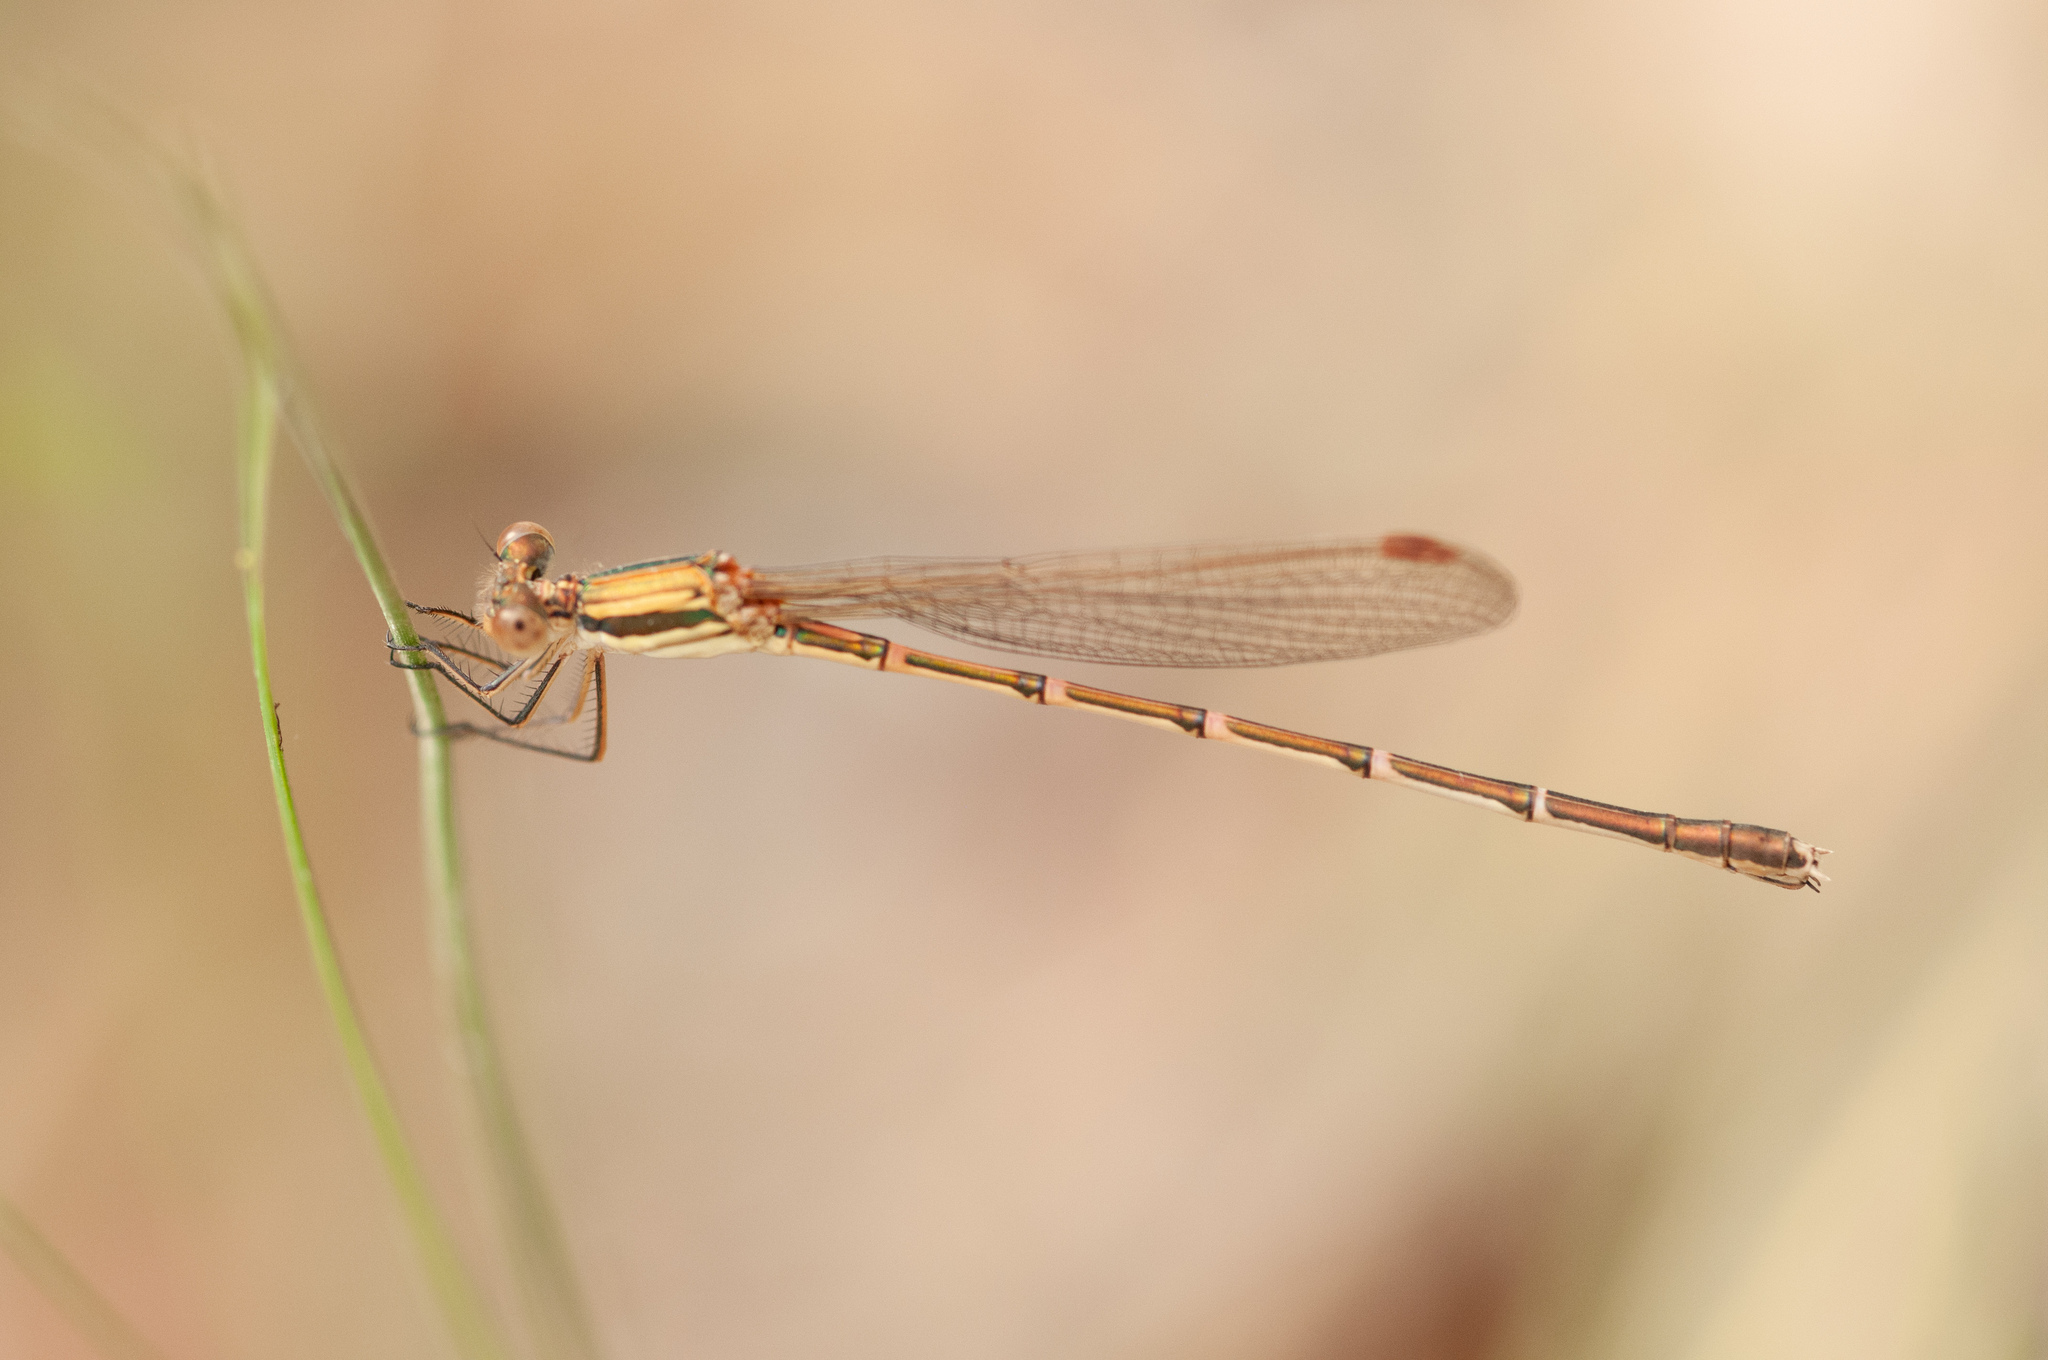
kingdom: Animalia
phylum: Arthropoda
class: Insecta
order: Odonata
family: Lestidae
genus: Austrolestes
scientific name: Austrolestes analis
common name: Slender ringtail
